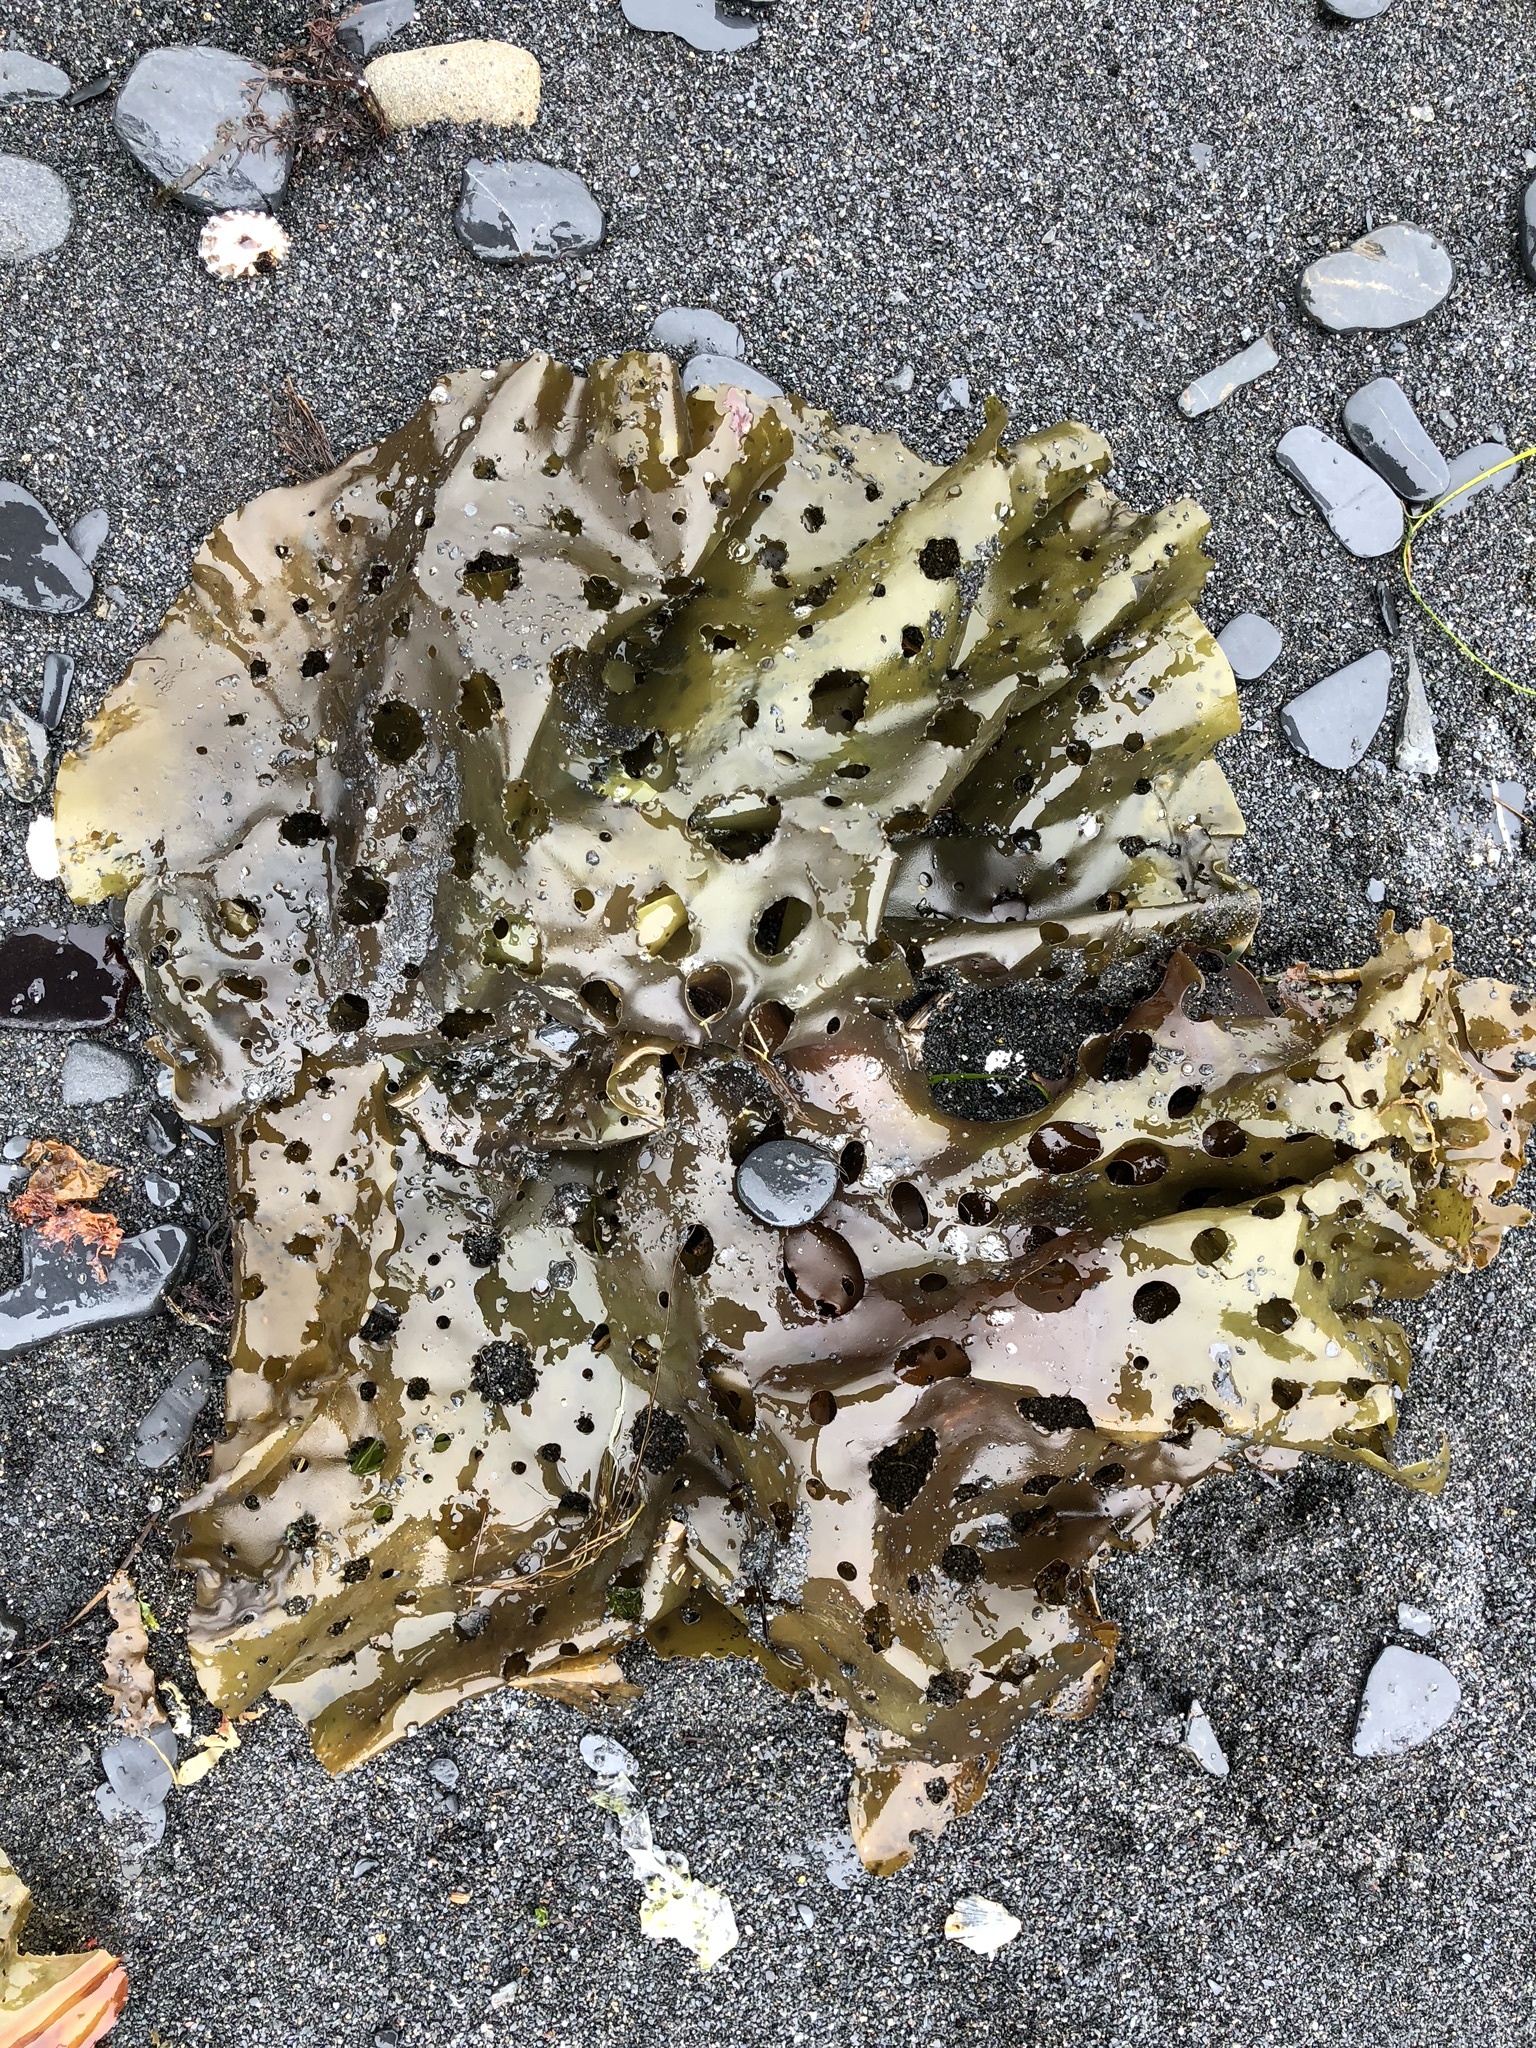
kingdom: Chromista
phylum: Ochrophyta
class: Phaeophyceae
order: Laminariales
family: Costariaceae
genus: Agarum
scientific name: Agarum clathratum
